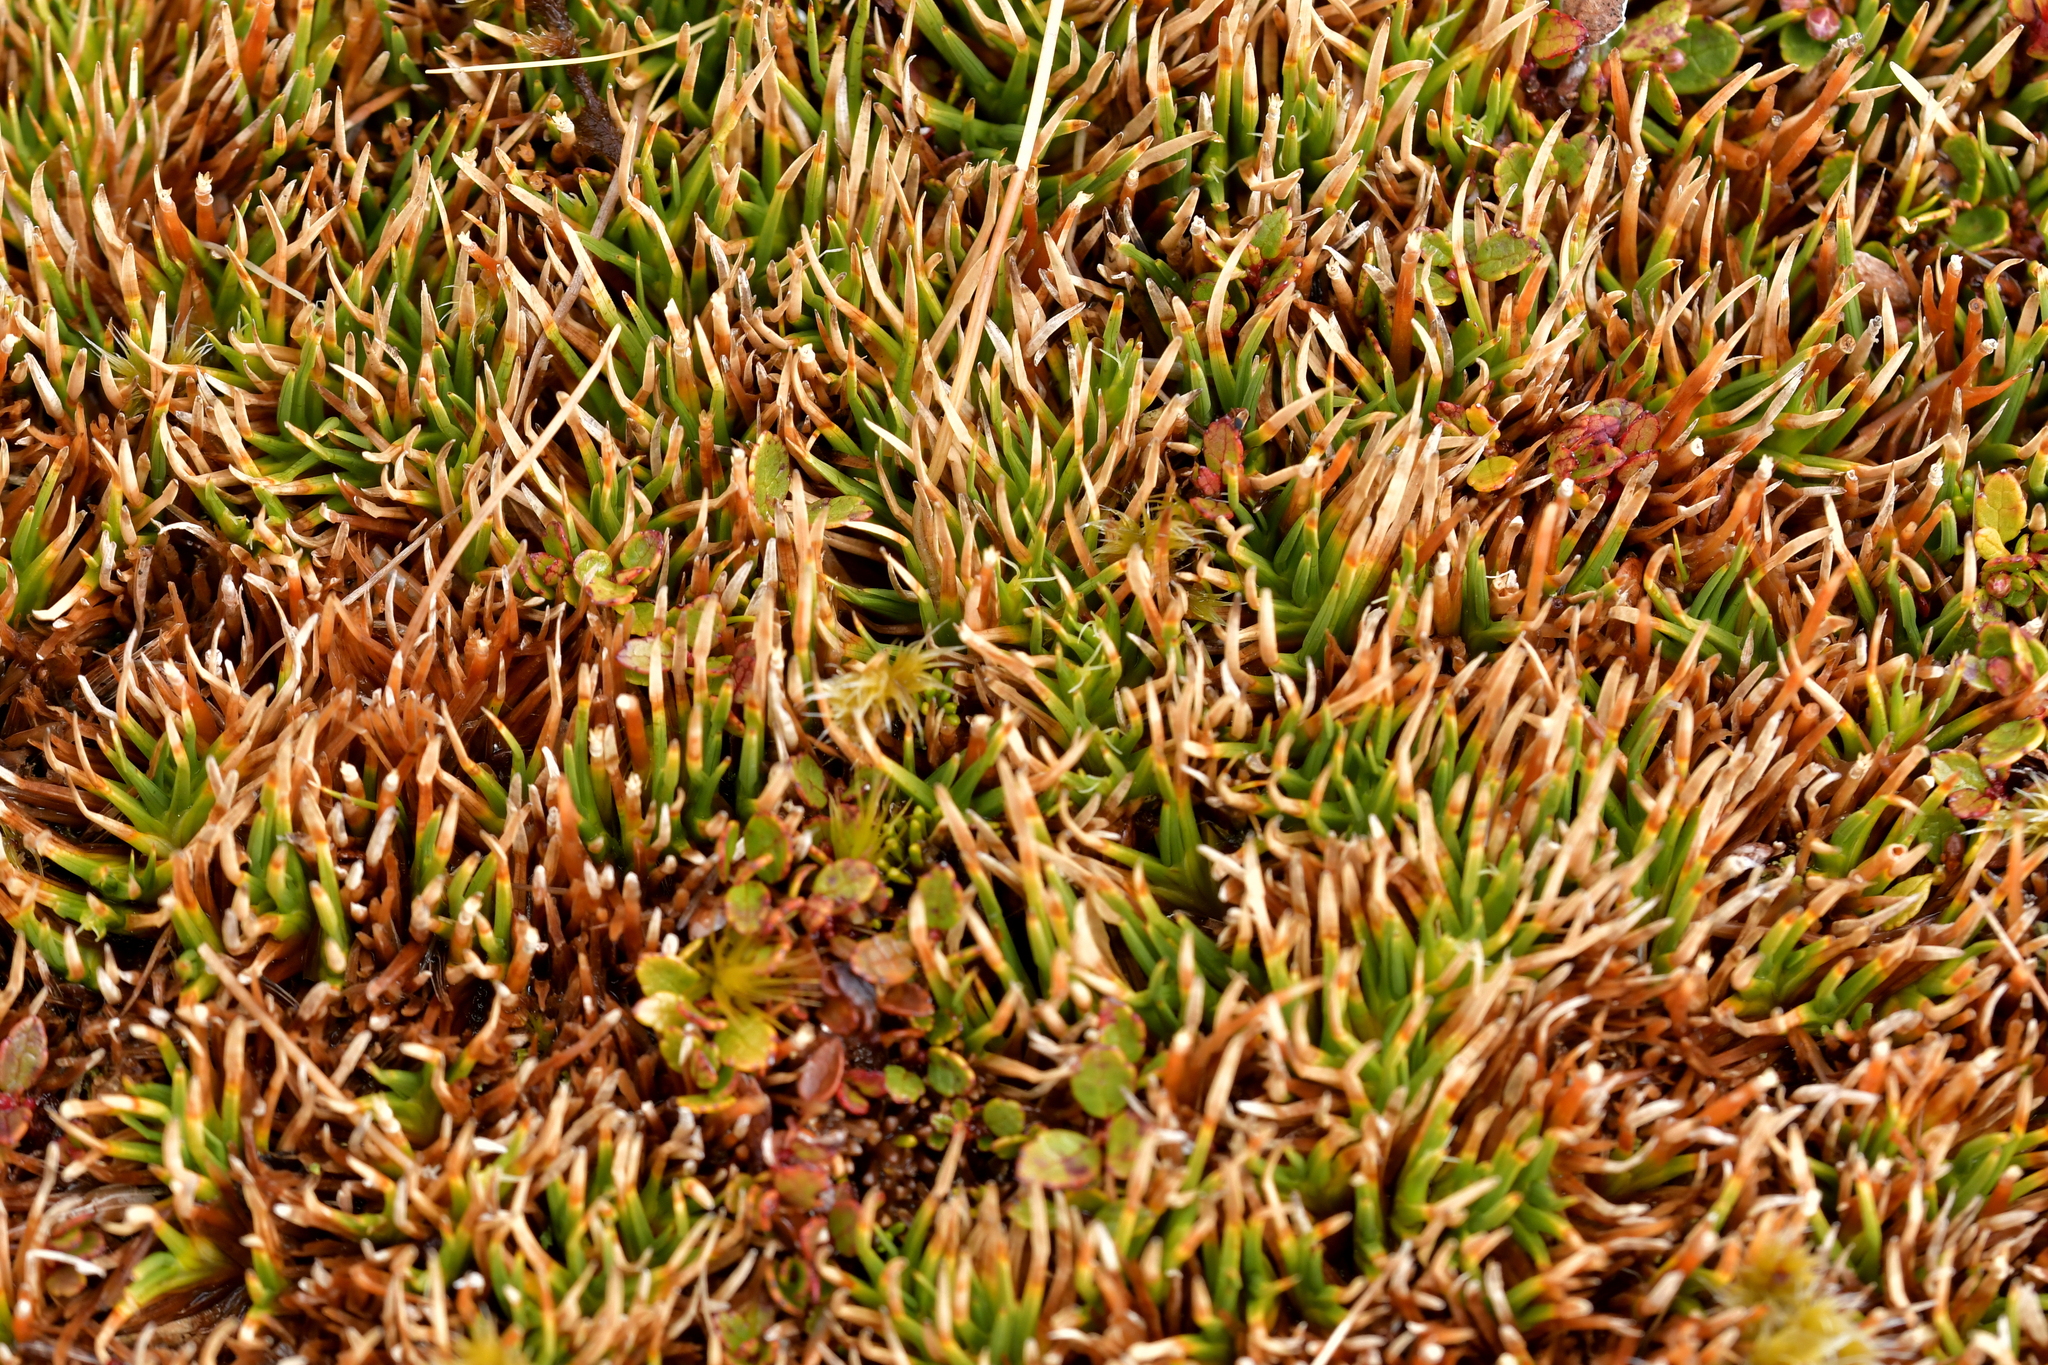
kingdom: Plantae
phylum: Tracheophyta
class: Liliopsida
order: Poales
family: Cyperaceae
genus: Oreobolus
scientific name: Oreobolus pectinatus
